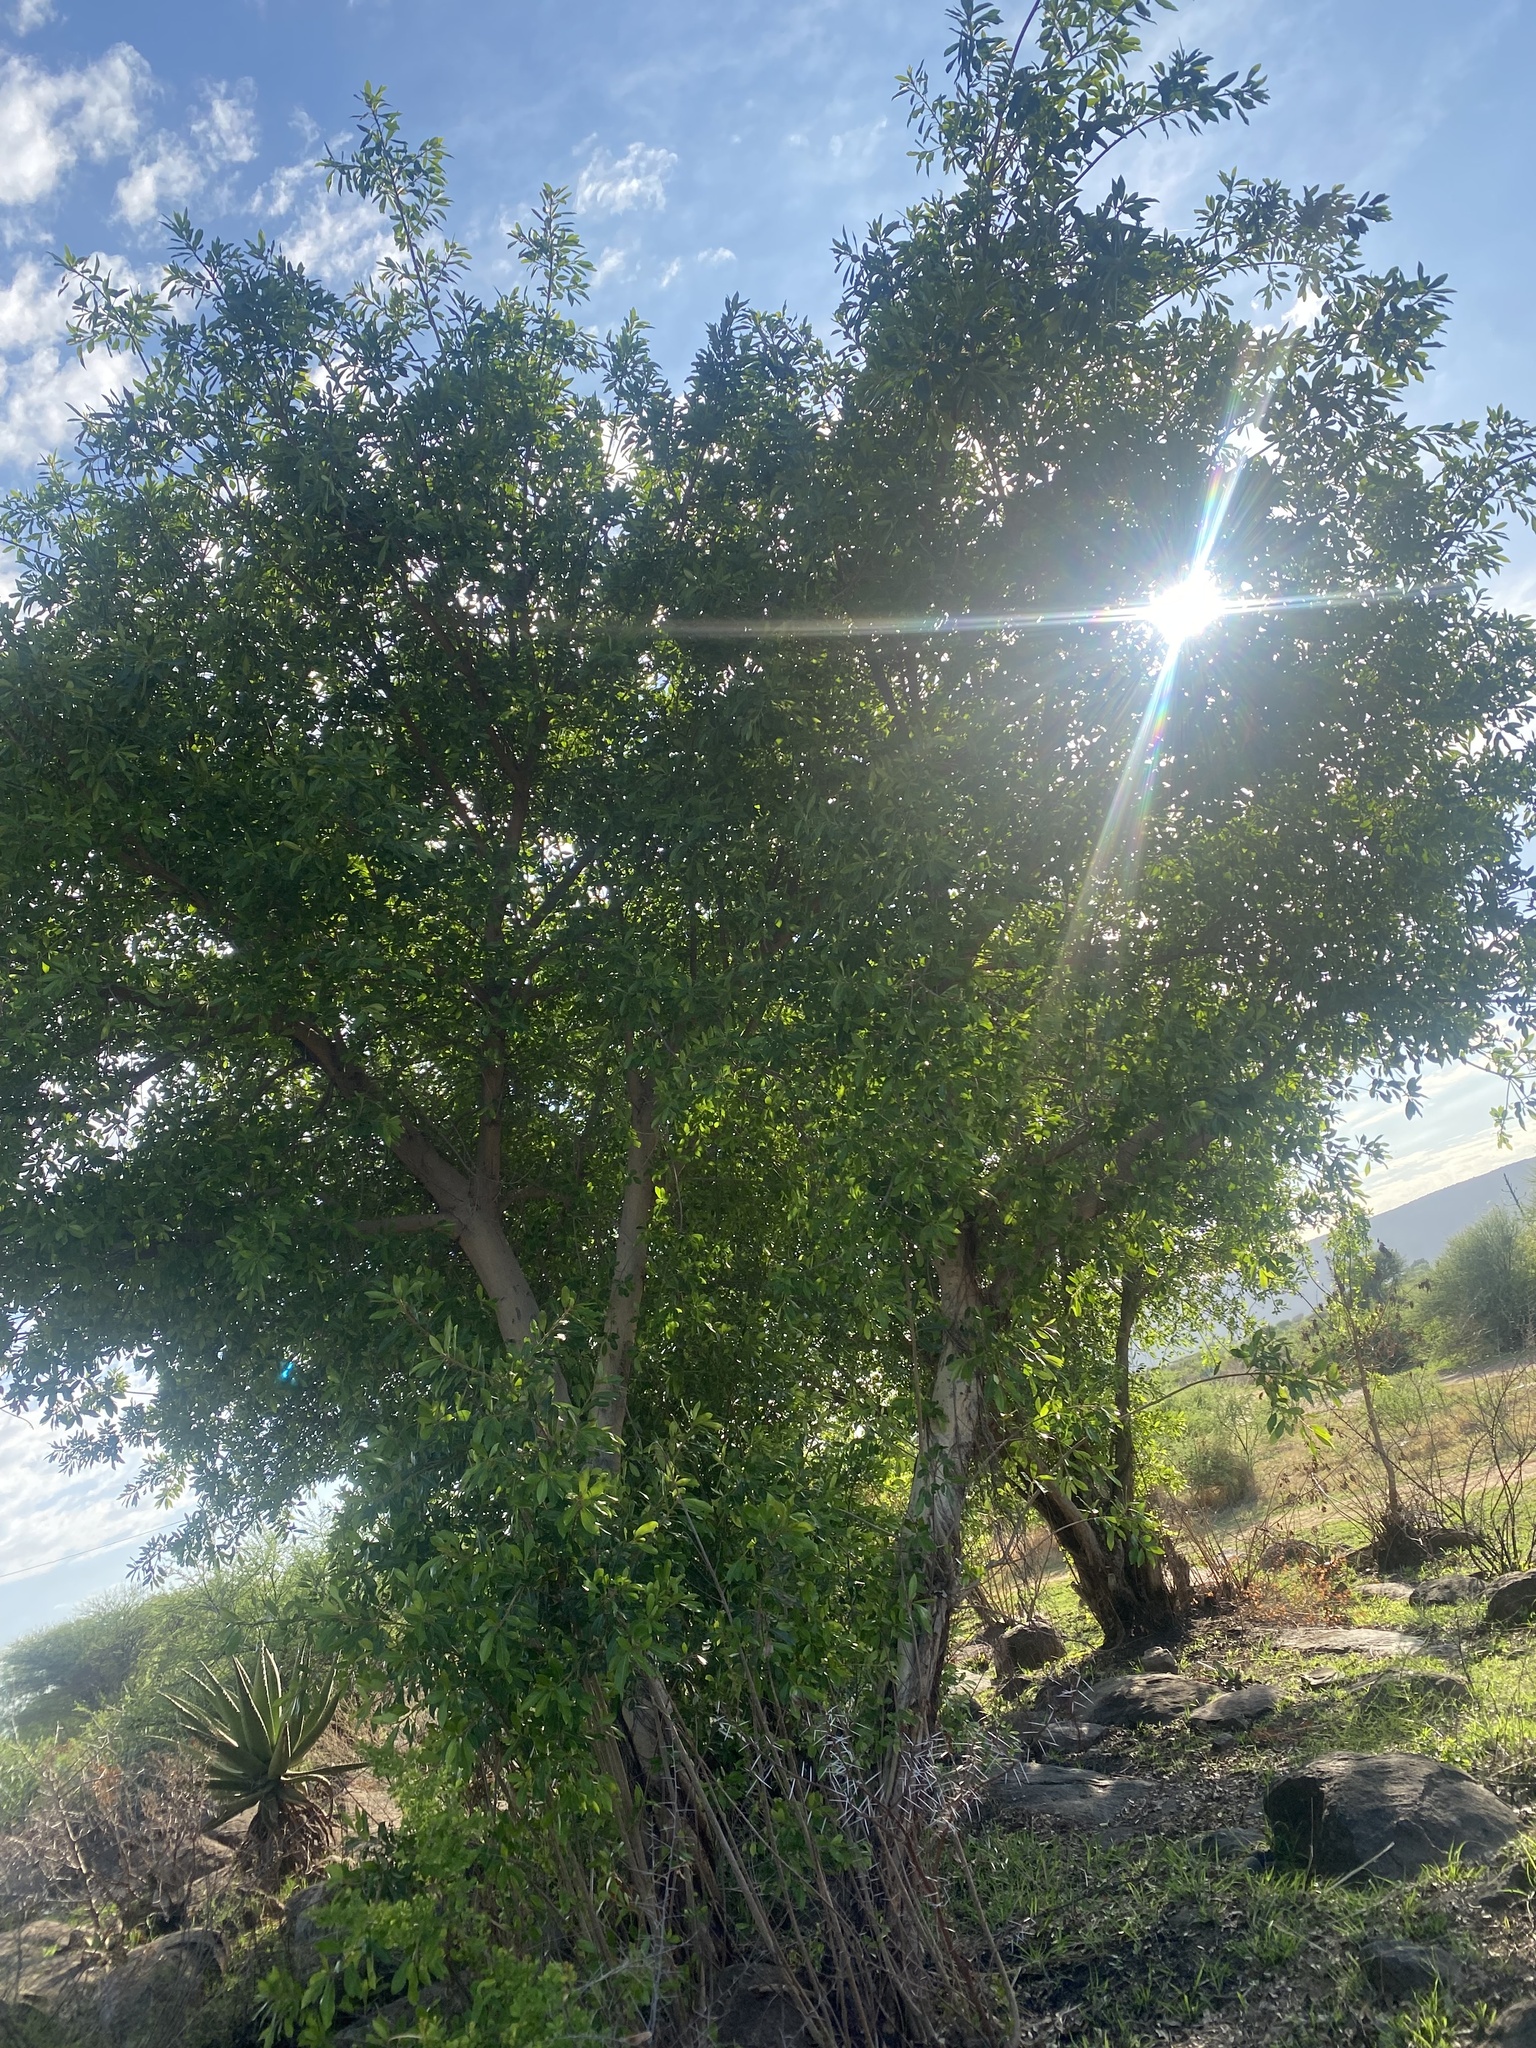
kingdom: Plantae
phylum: Tracheophyta
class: Magnoliopsida
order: Rosales
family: Moraceae
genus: Ficus
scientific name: Ficus thonningii
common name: Fig
